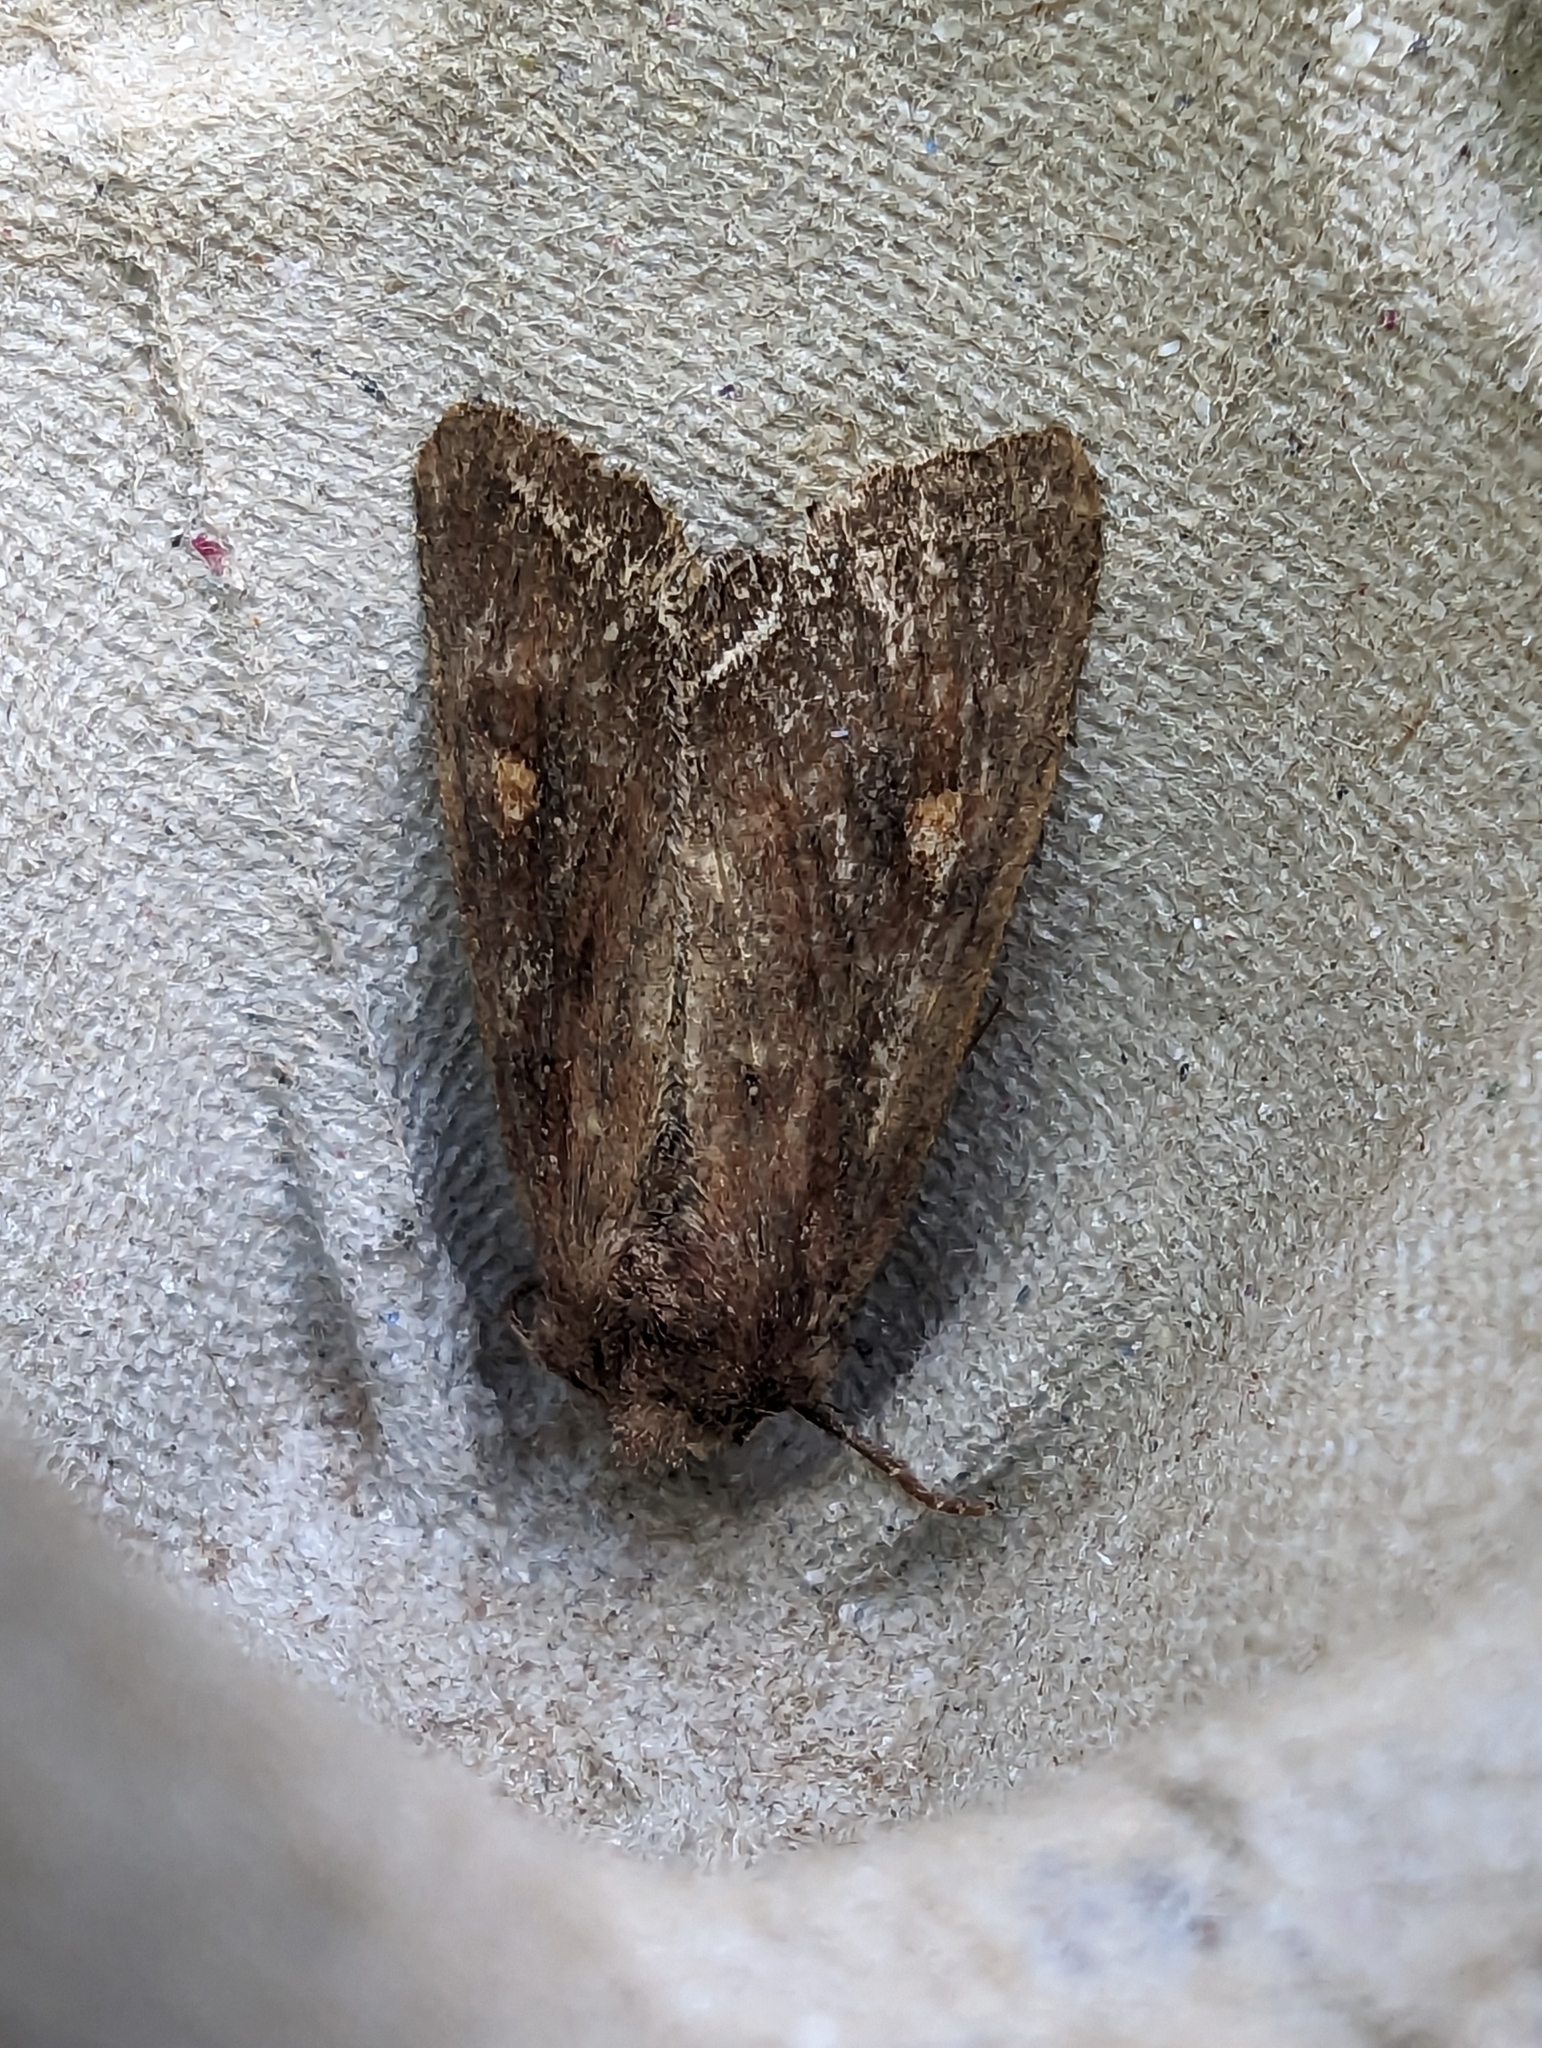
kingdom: Animalia
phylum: Arthropoda
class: Insecta
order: Lepidoptera
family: Noctuidae
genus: Lacanobia
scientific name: Lacanobia oleracea
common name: Bright-line brown-eye
